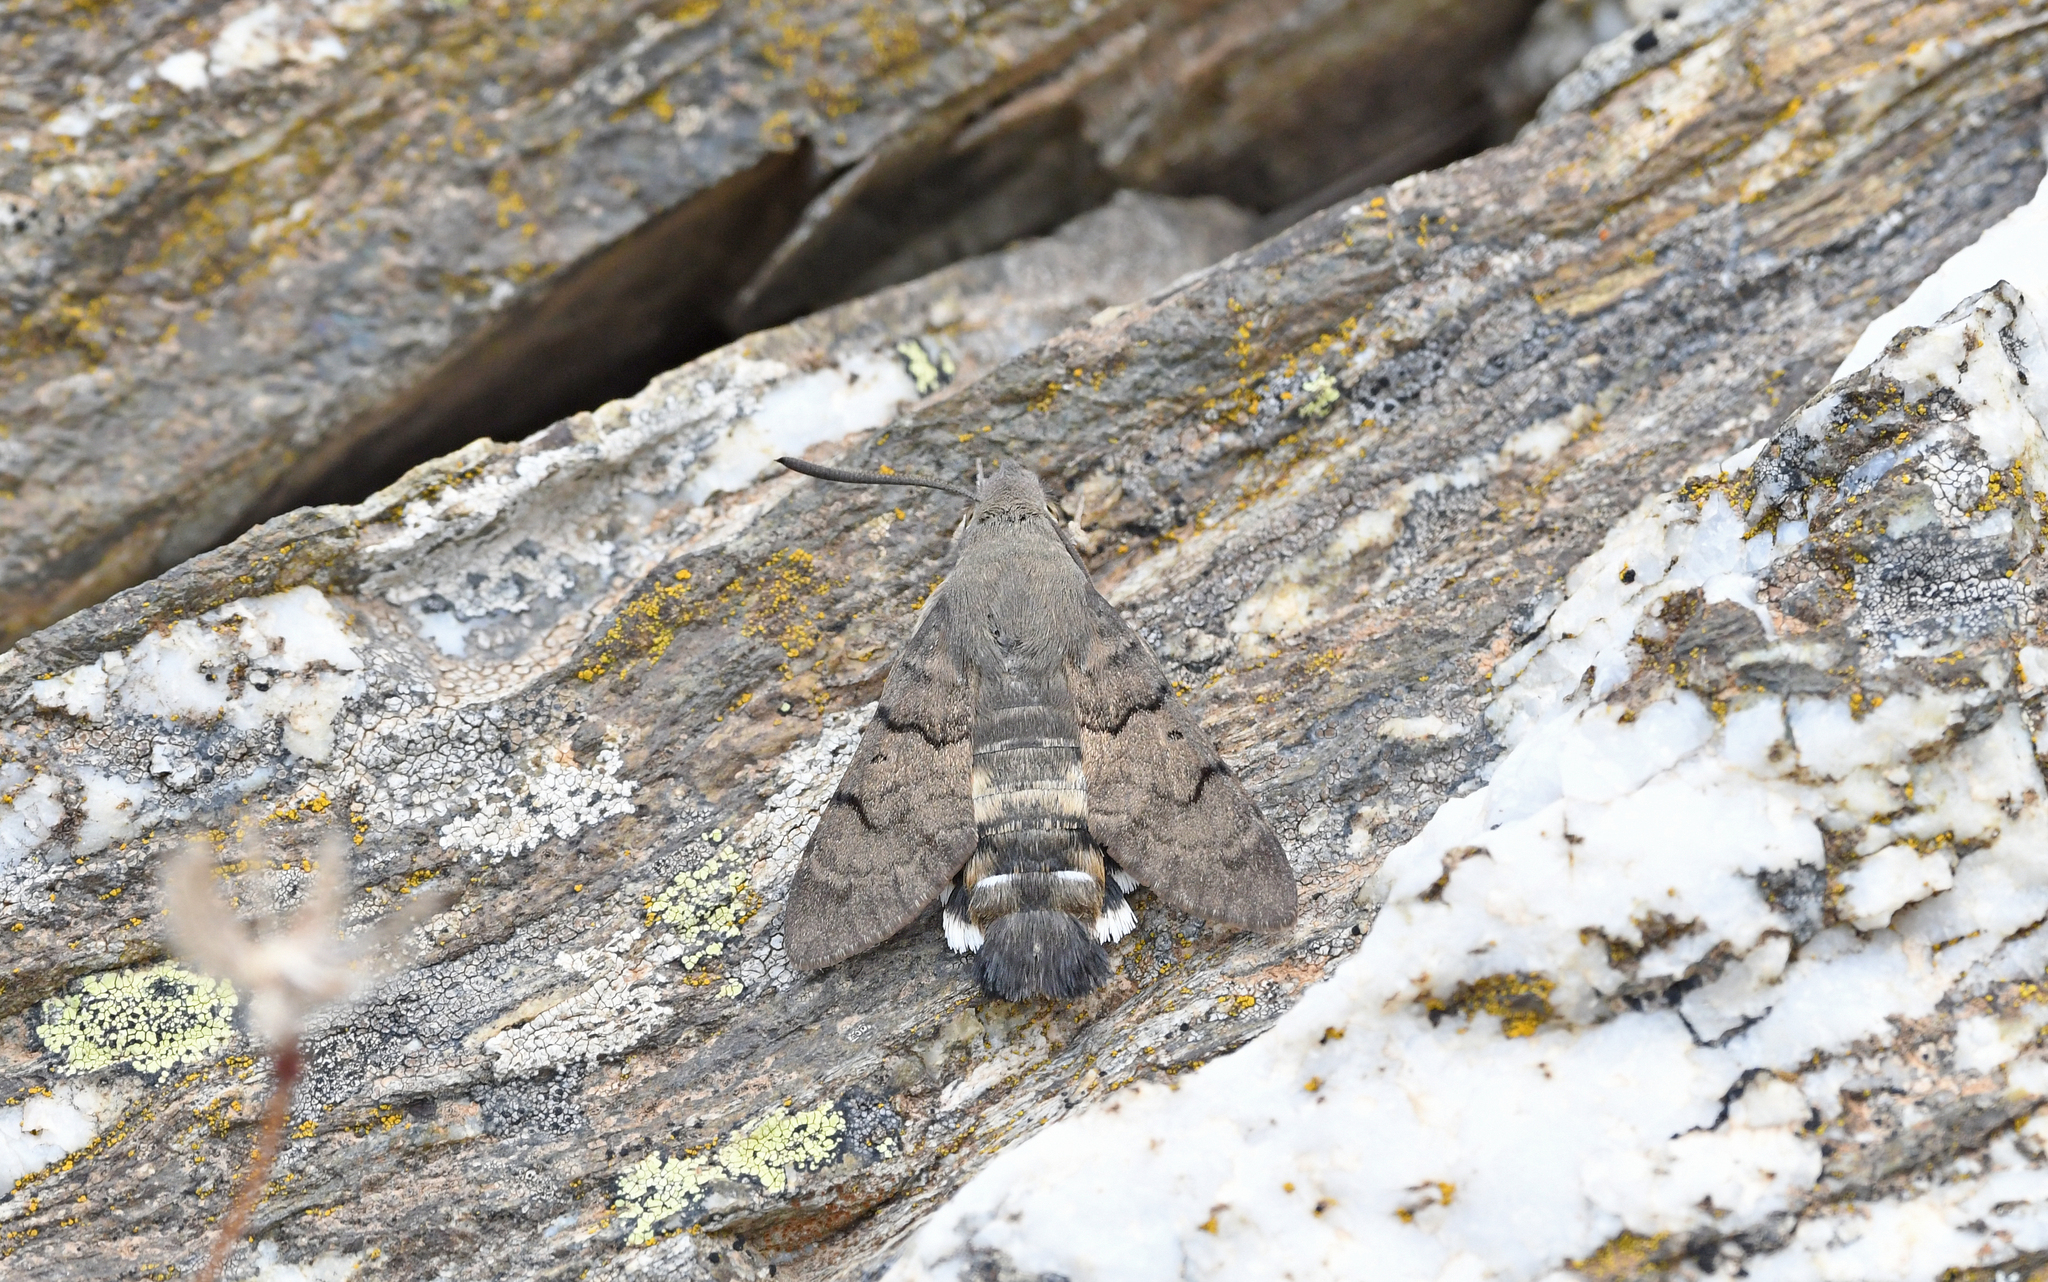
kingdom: Animalia
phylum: Arthropoda
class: Insecta
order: Lepidoptera
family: Sphingidae
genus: Macroglossum
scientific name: Macroglossum stellatarum
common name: Humming-bird hawk-moth
